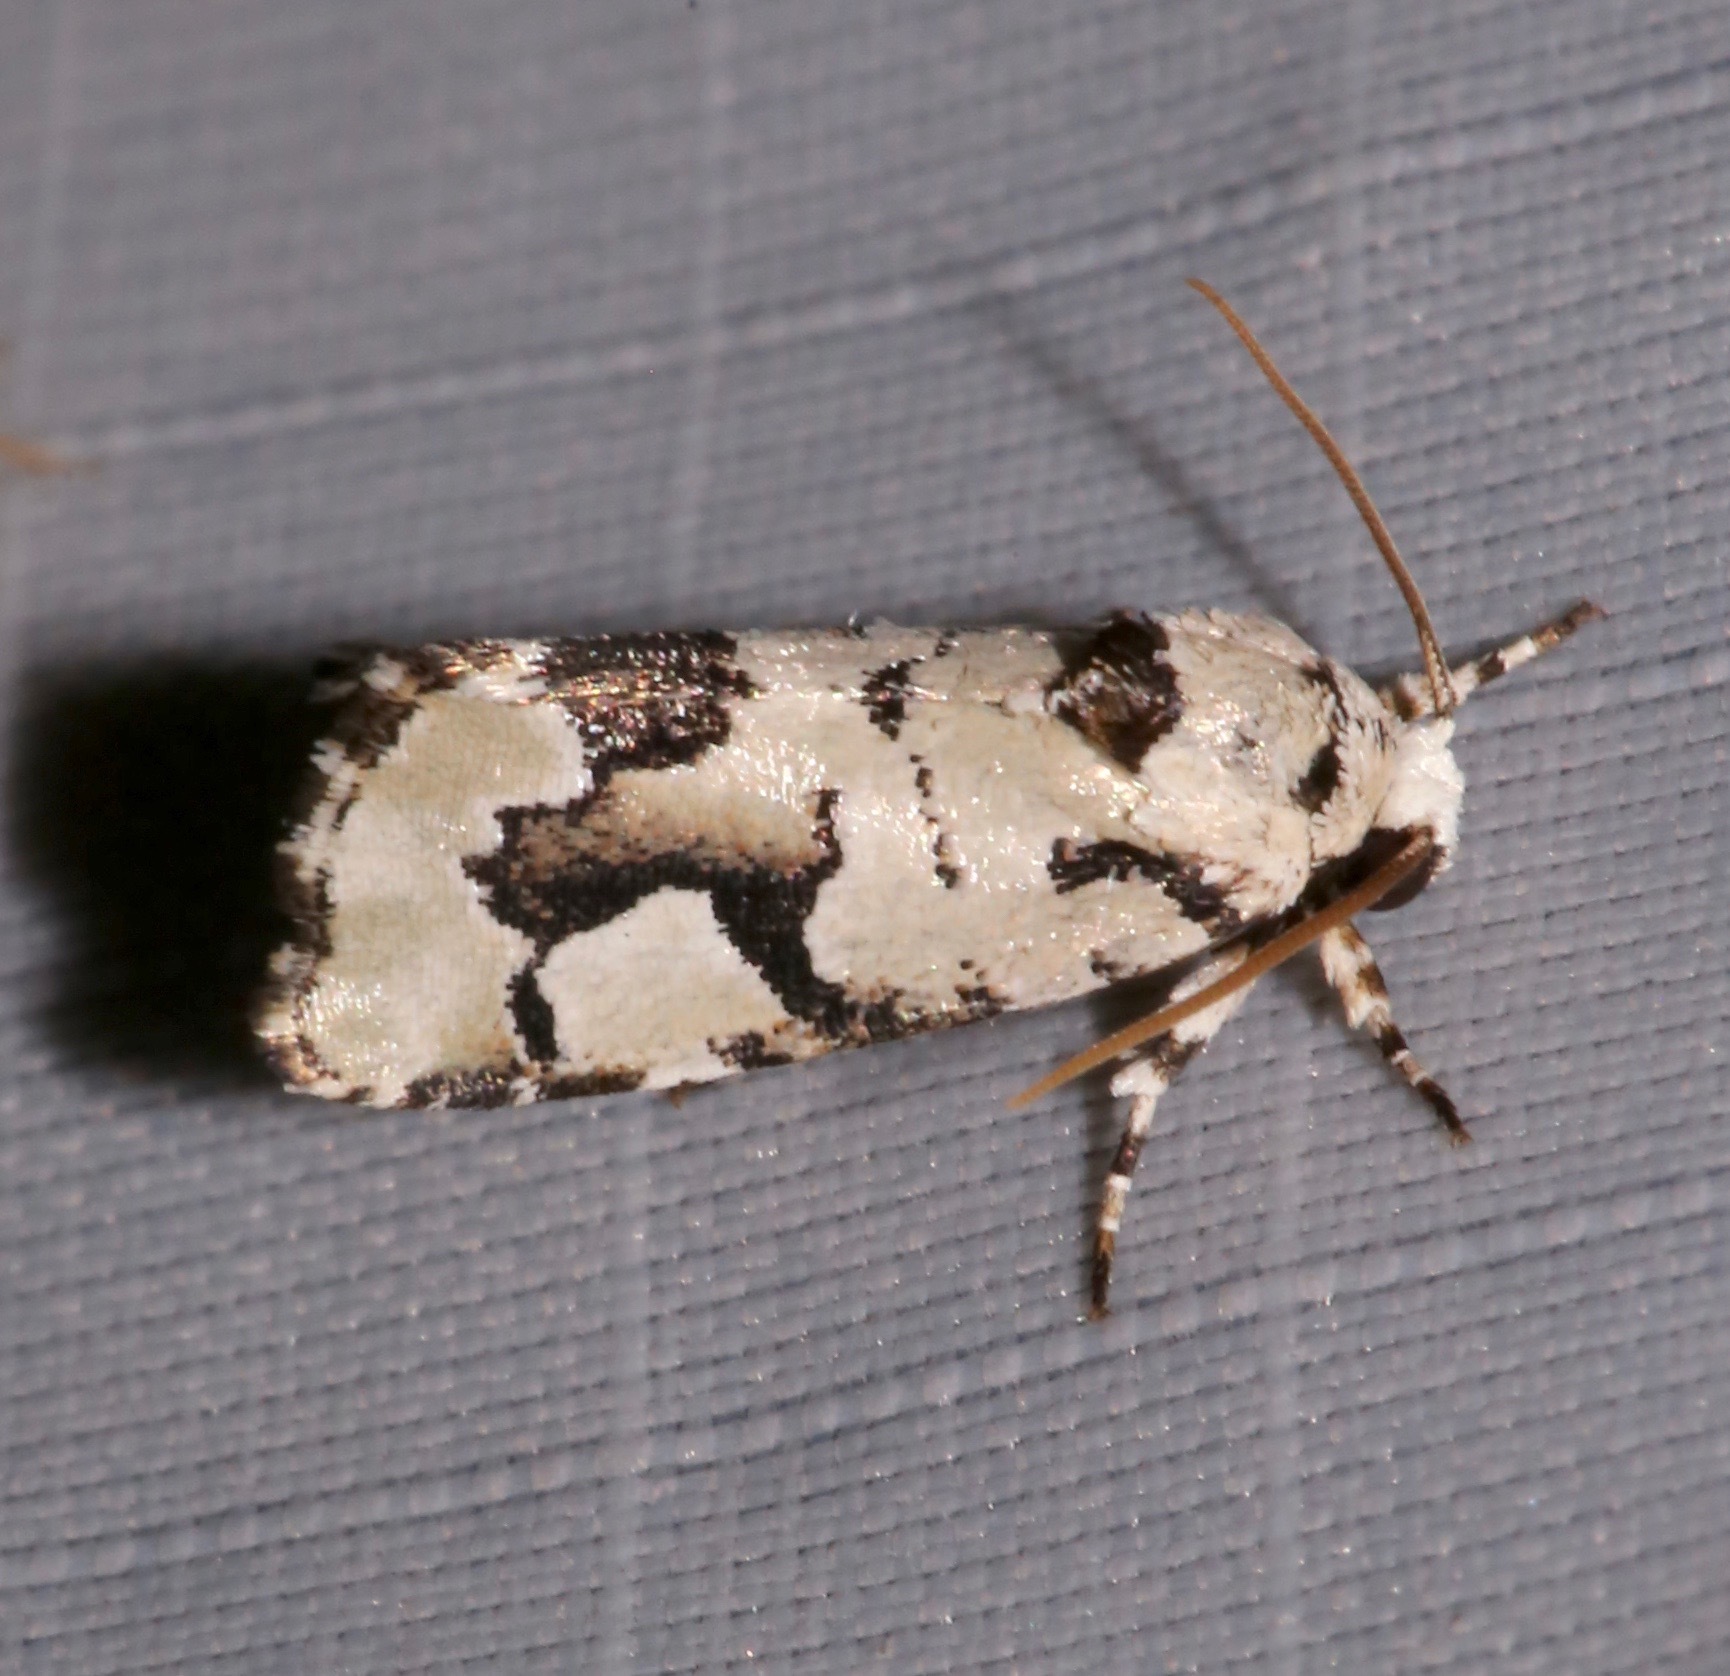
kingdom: Animalia
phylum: Arthropoda
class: Insecta
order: Lepidoptera
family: Noctuidae
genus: Emarginea
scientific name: Emarginea percara
